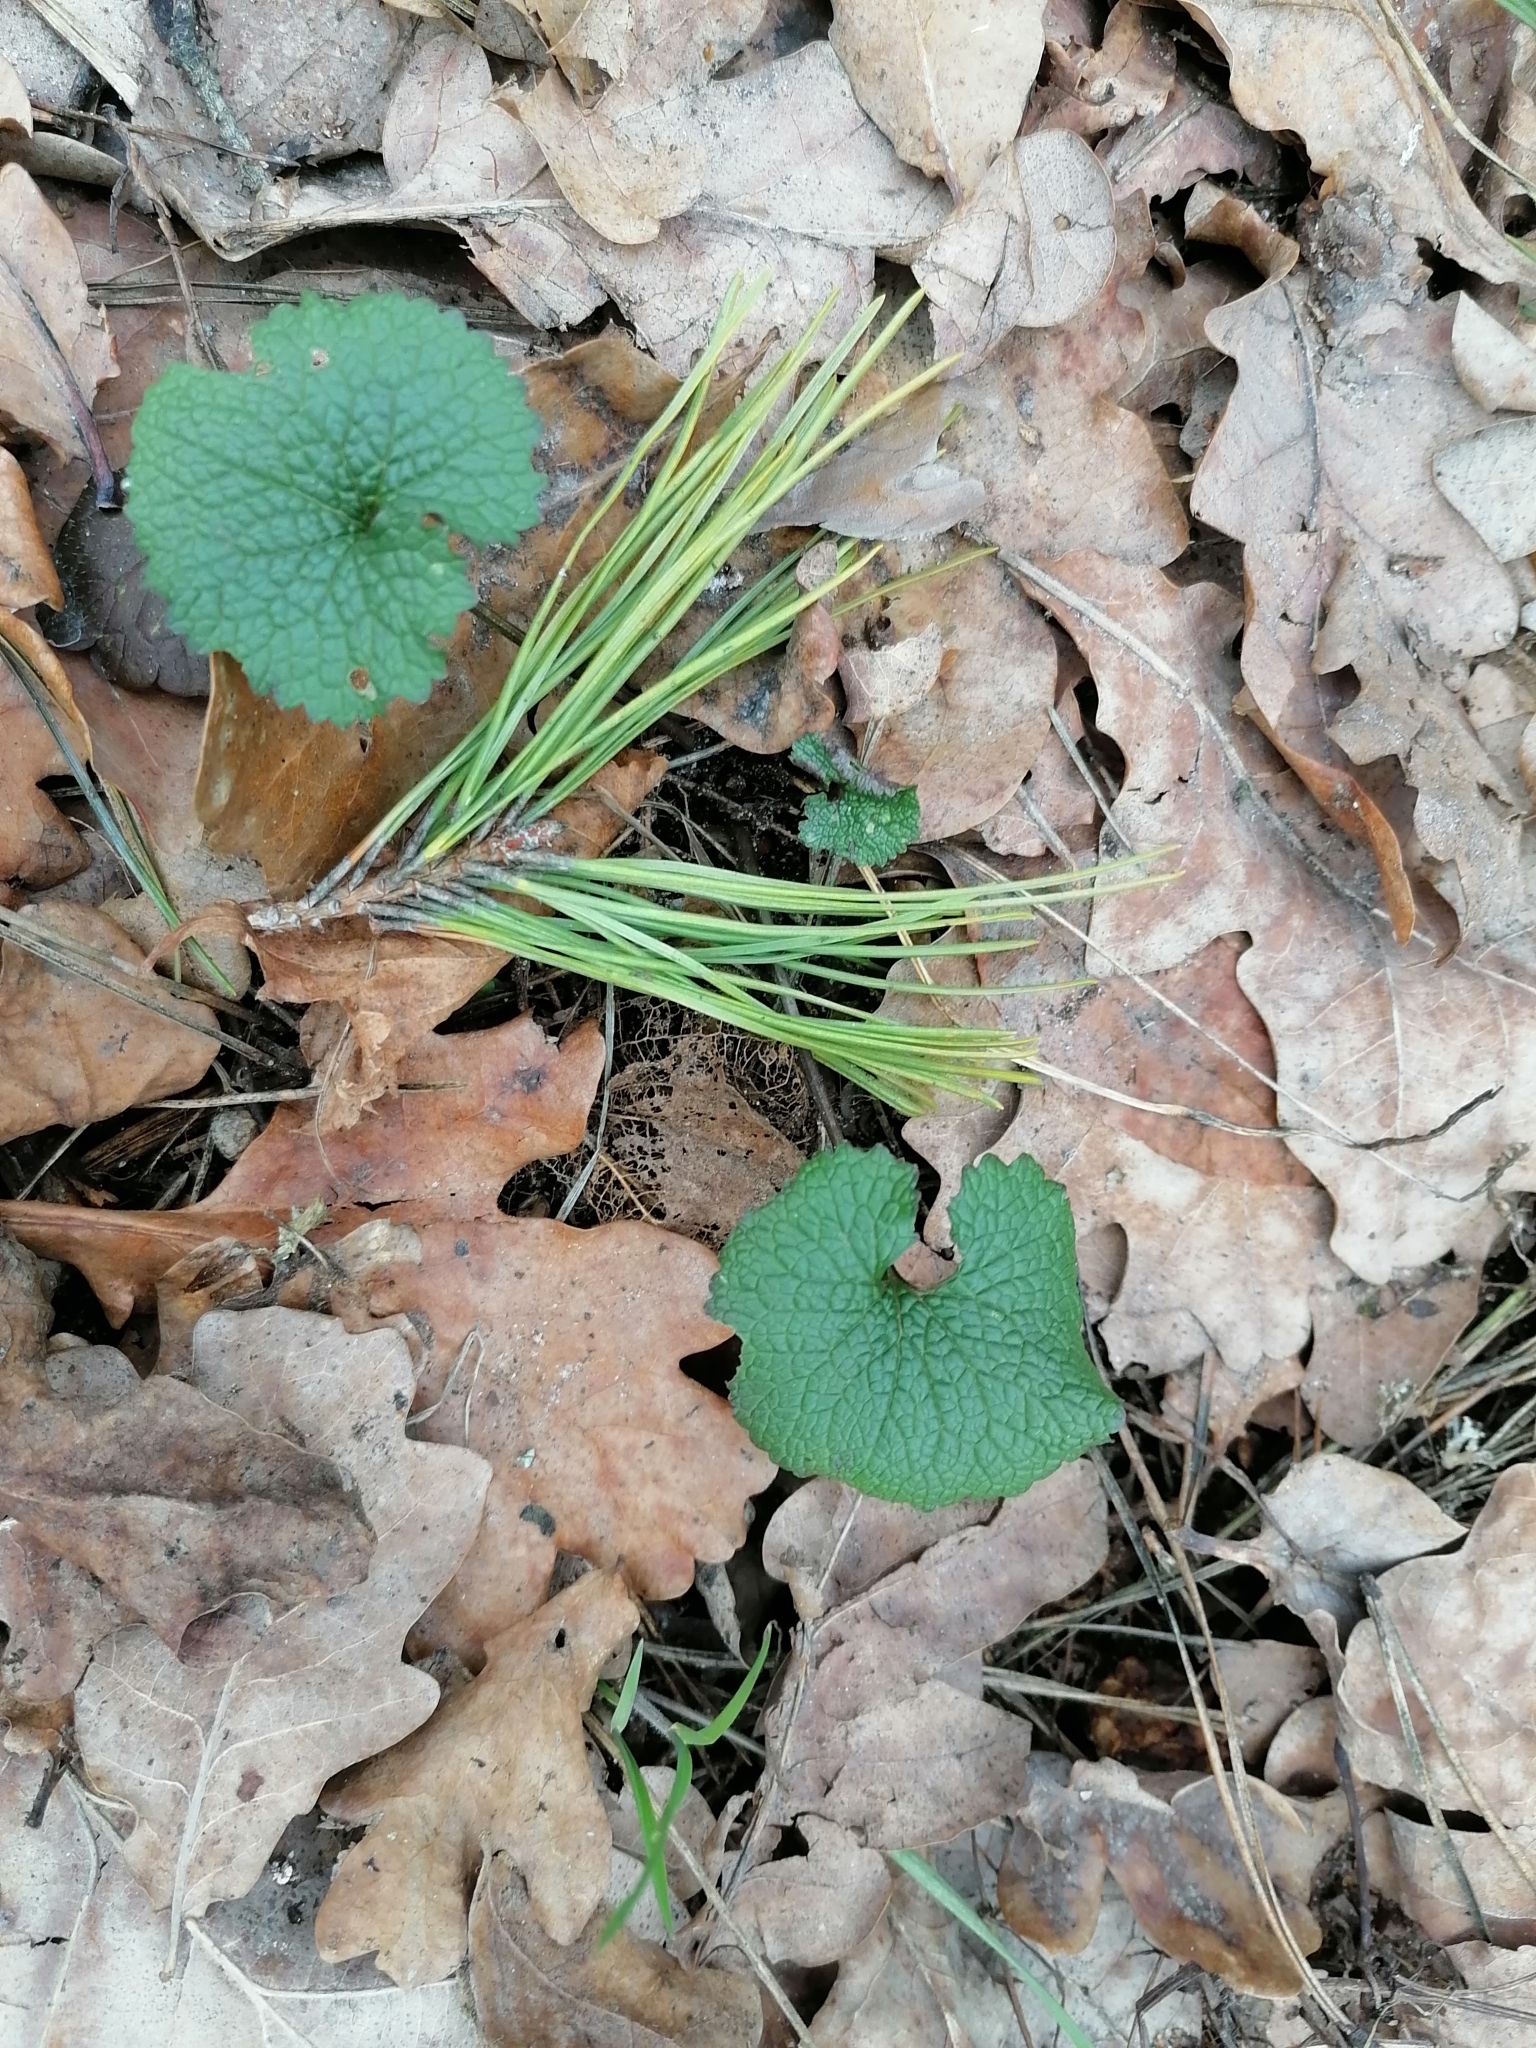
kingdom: Plantae
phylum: Tracheophyta
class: Magnoliopsida
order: Brassicales
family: Brassicaceae
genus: Alliaria
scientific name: Alliaria petiolata
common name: Garlic mustard
